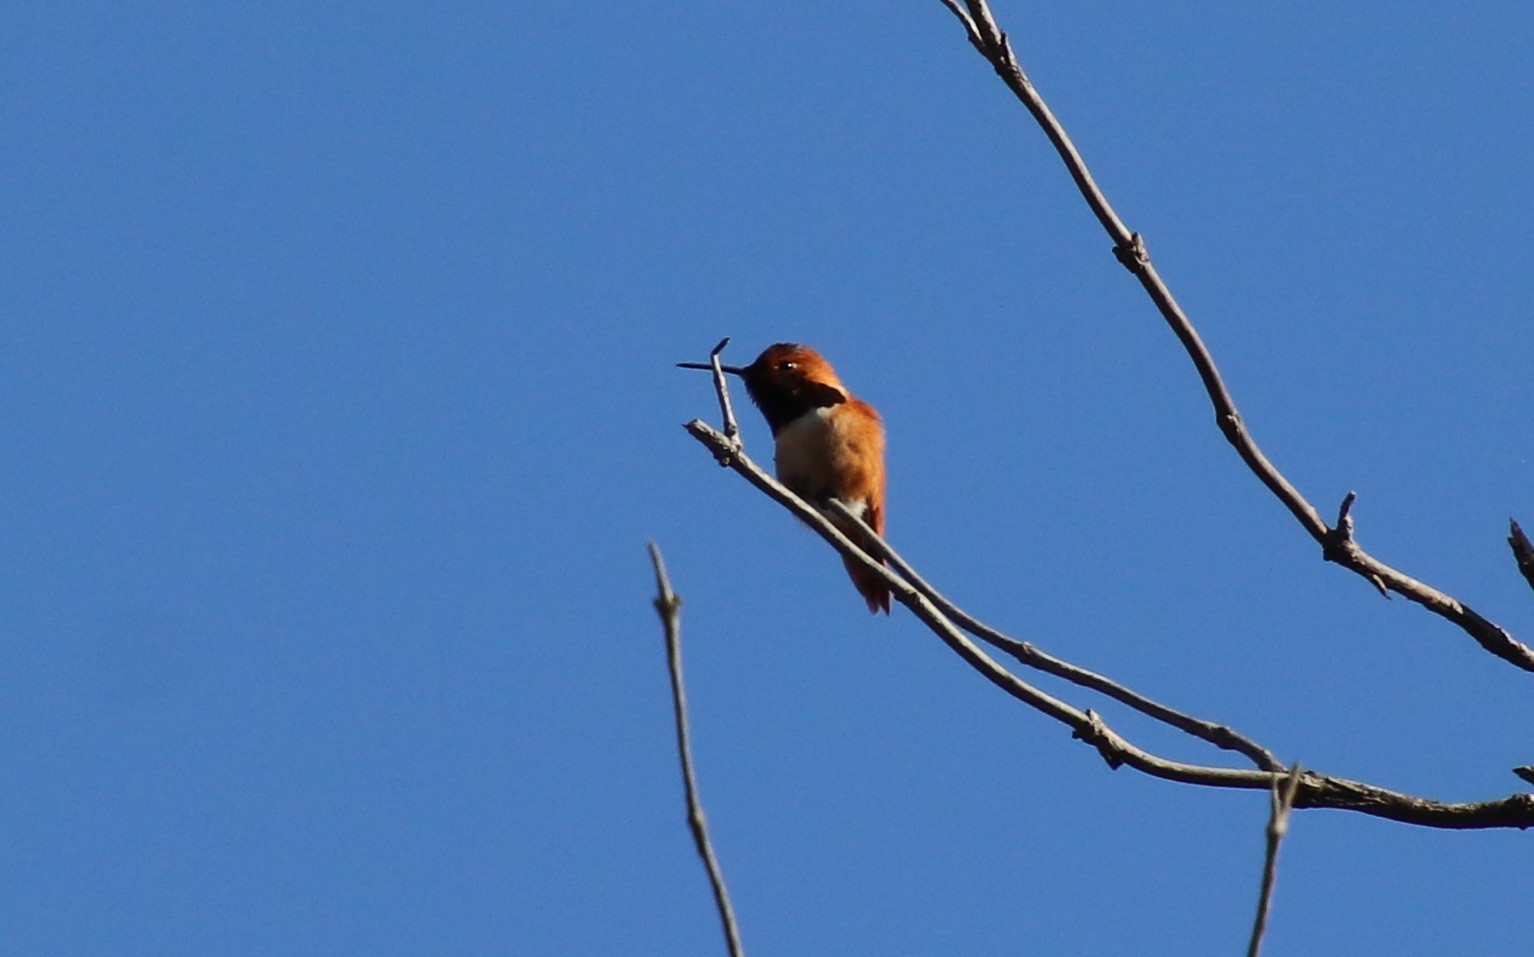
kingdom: Animalia
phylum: Chordata
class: Aves
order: Apodiformes
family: Trochilidae
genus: Selasphorus
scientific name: Selasphorus sasin
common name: Allen's hummingbird
